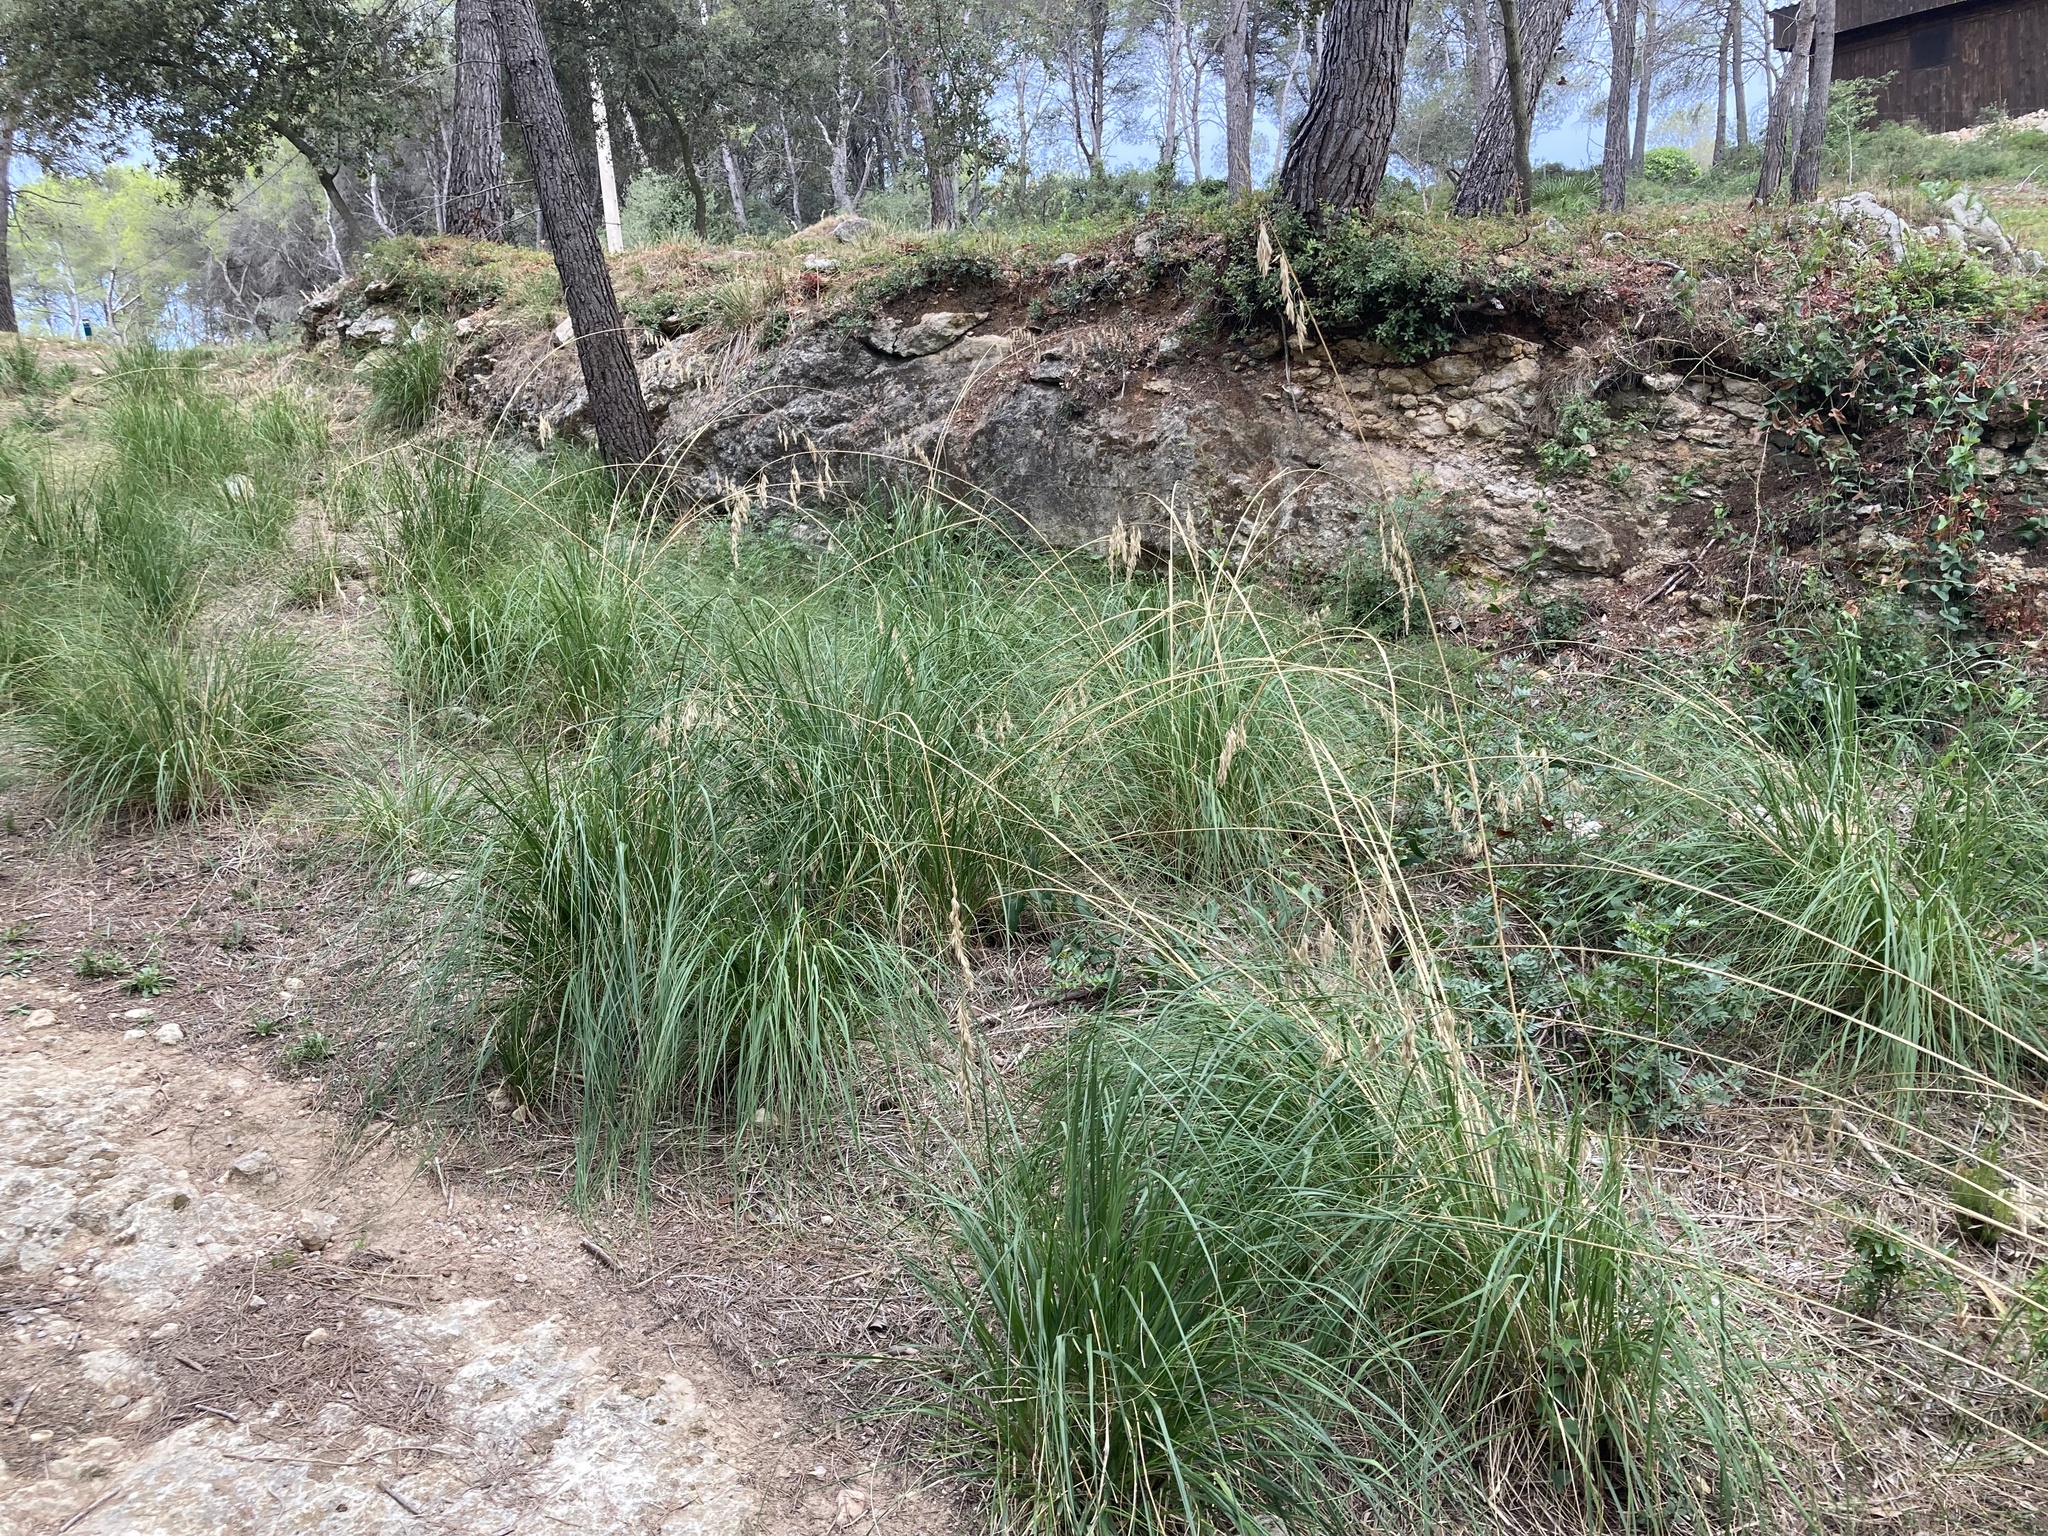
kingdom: Plantae
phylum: Tracheophyta
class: Liliopsida
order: Poales
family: Poaceae
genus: Ampelodesmos
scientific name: Ampelodesmos mauritanicus
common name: Mauritanian grass
